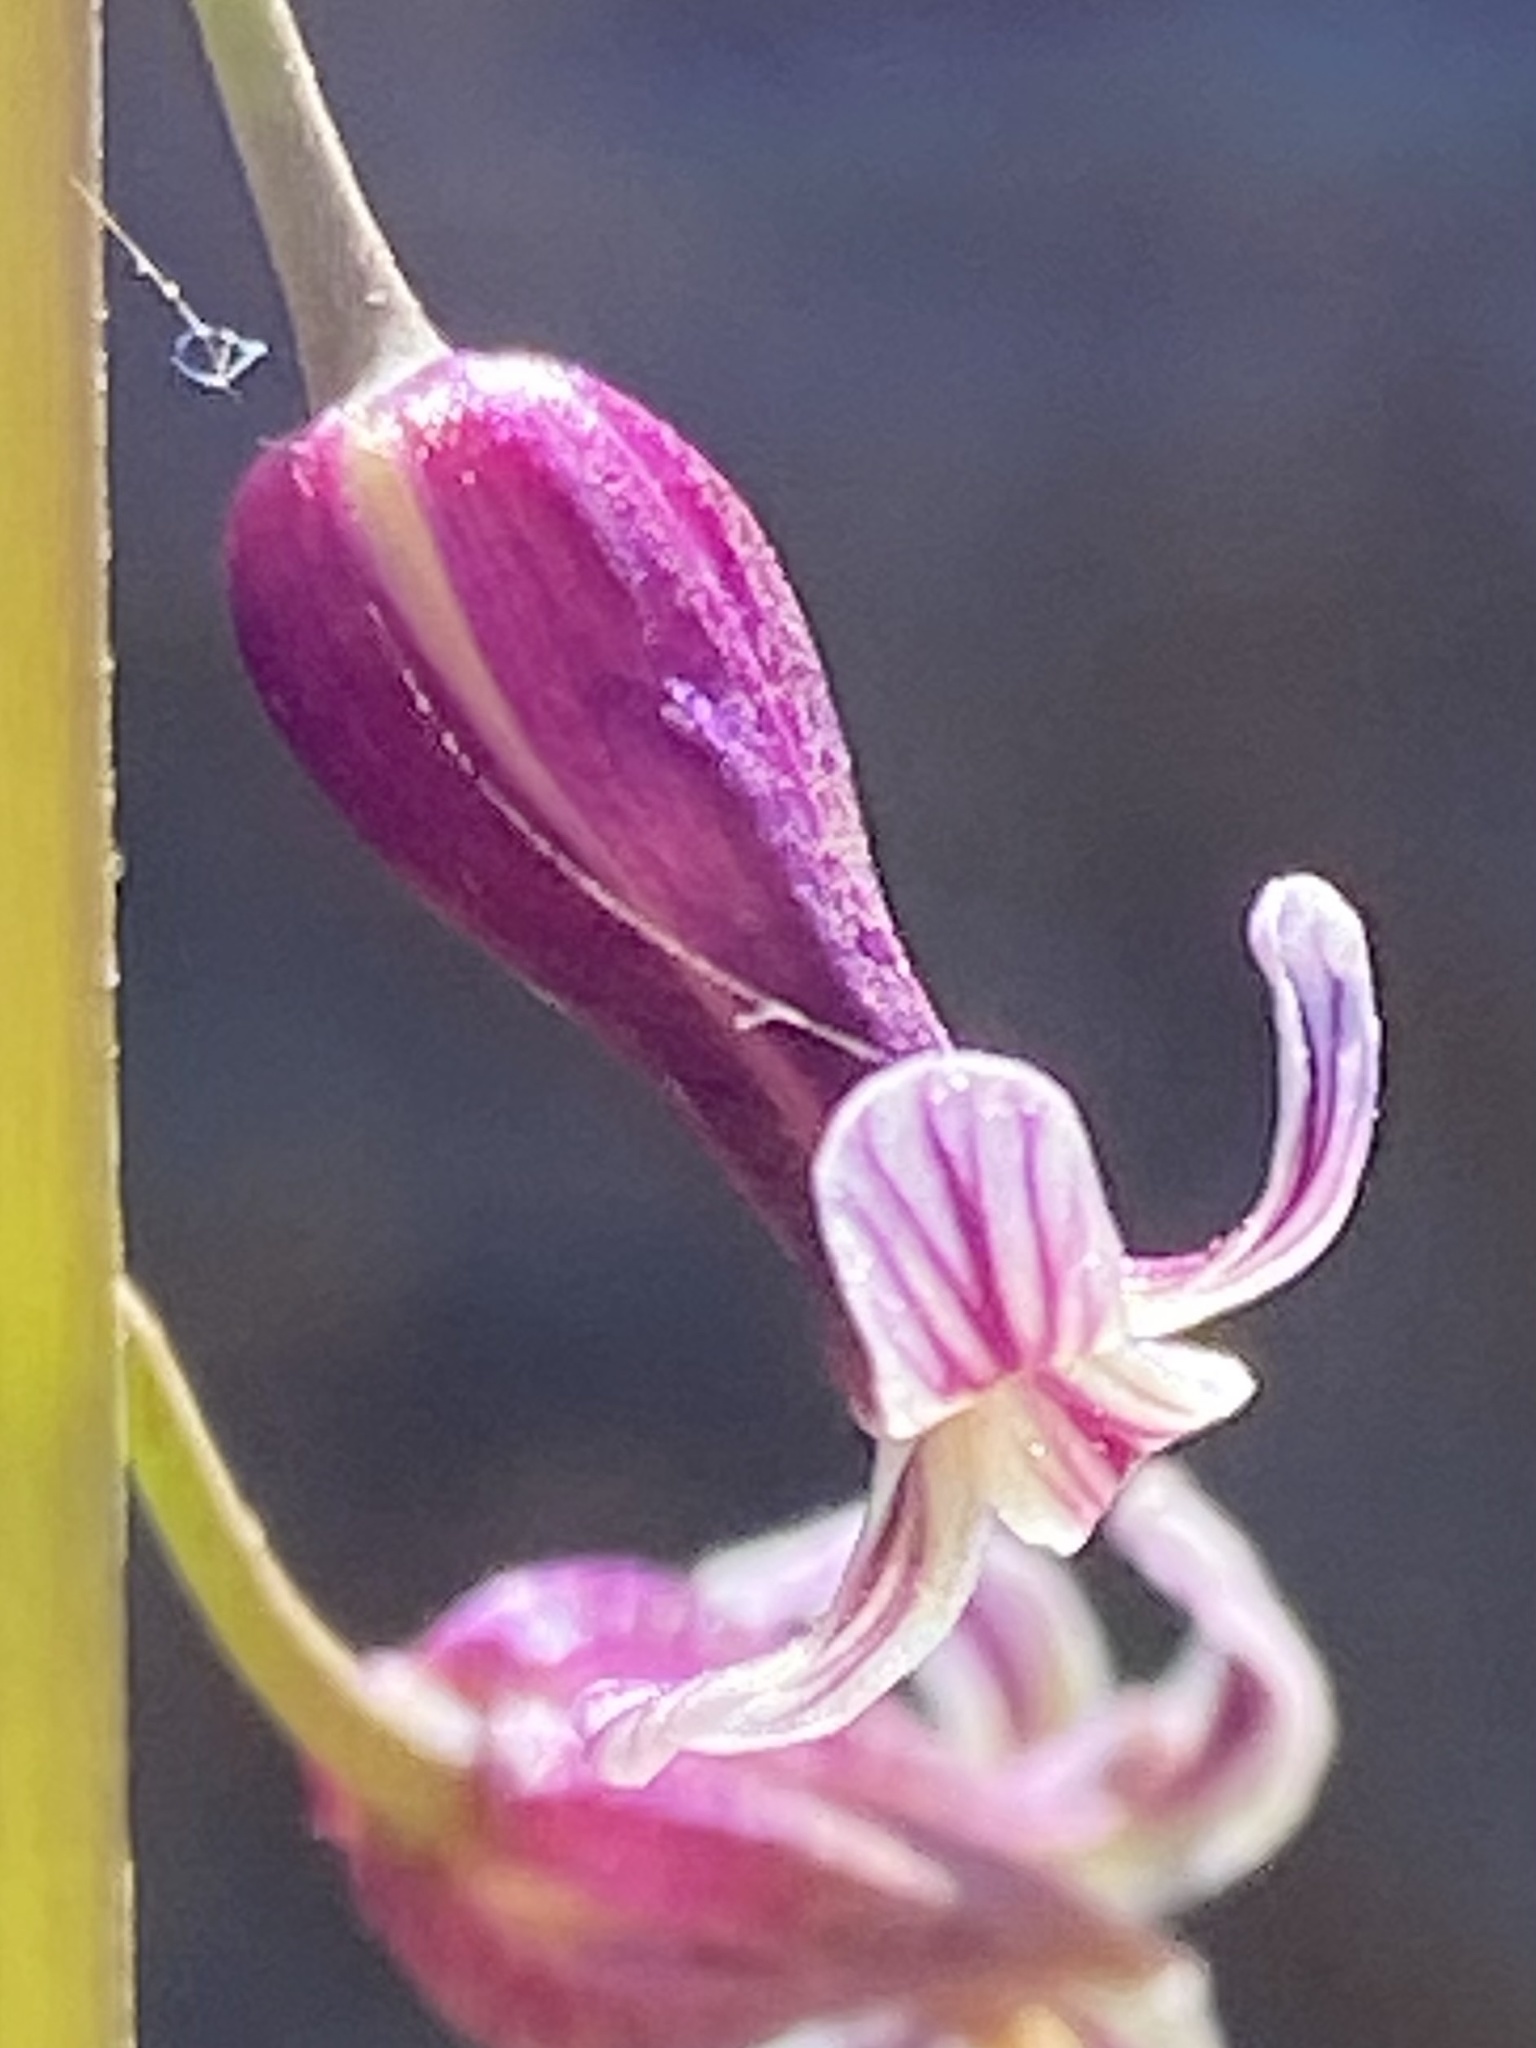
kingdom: Plantae
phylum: Tracheophyta
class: Magnoliopsida
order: Brassicales
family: Brassicaceae
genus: Streptanthus
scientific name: Streptanthus heterophyllus
